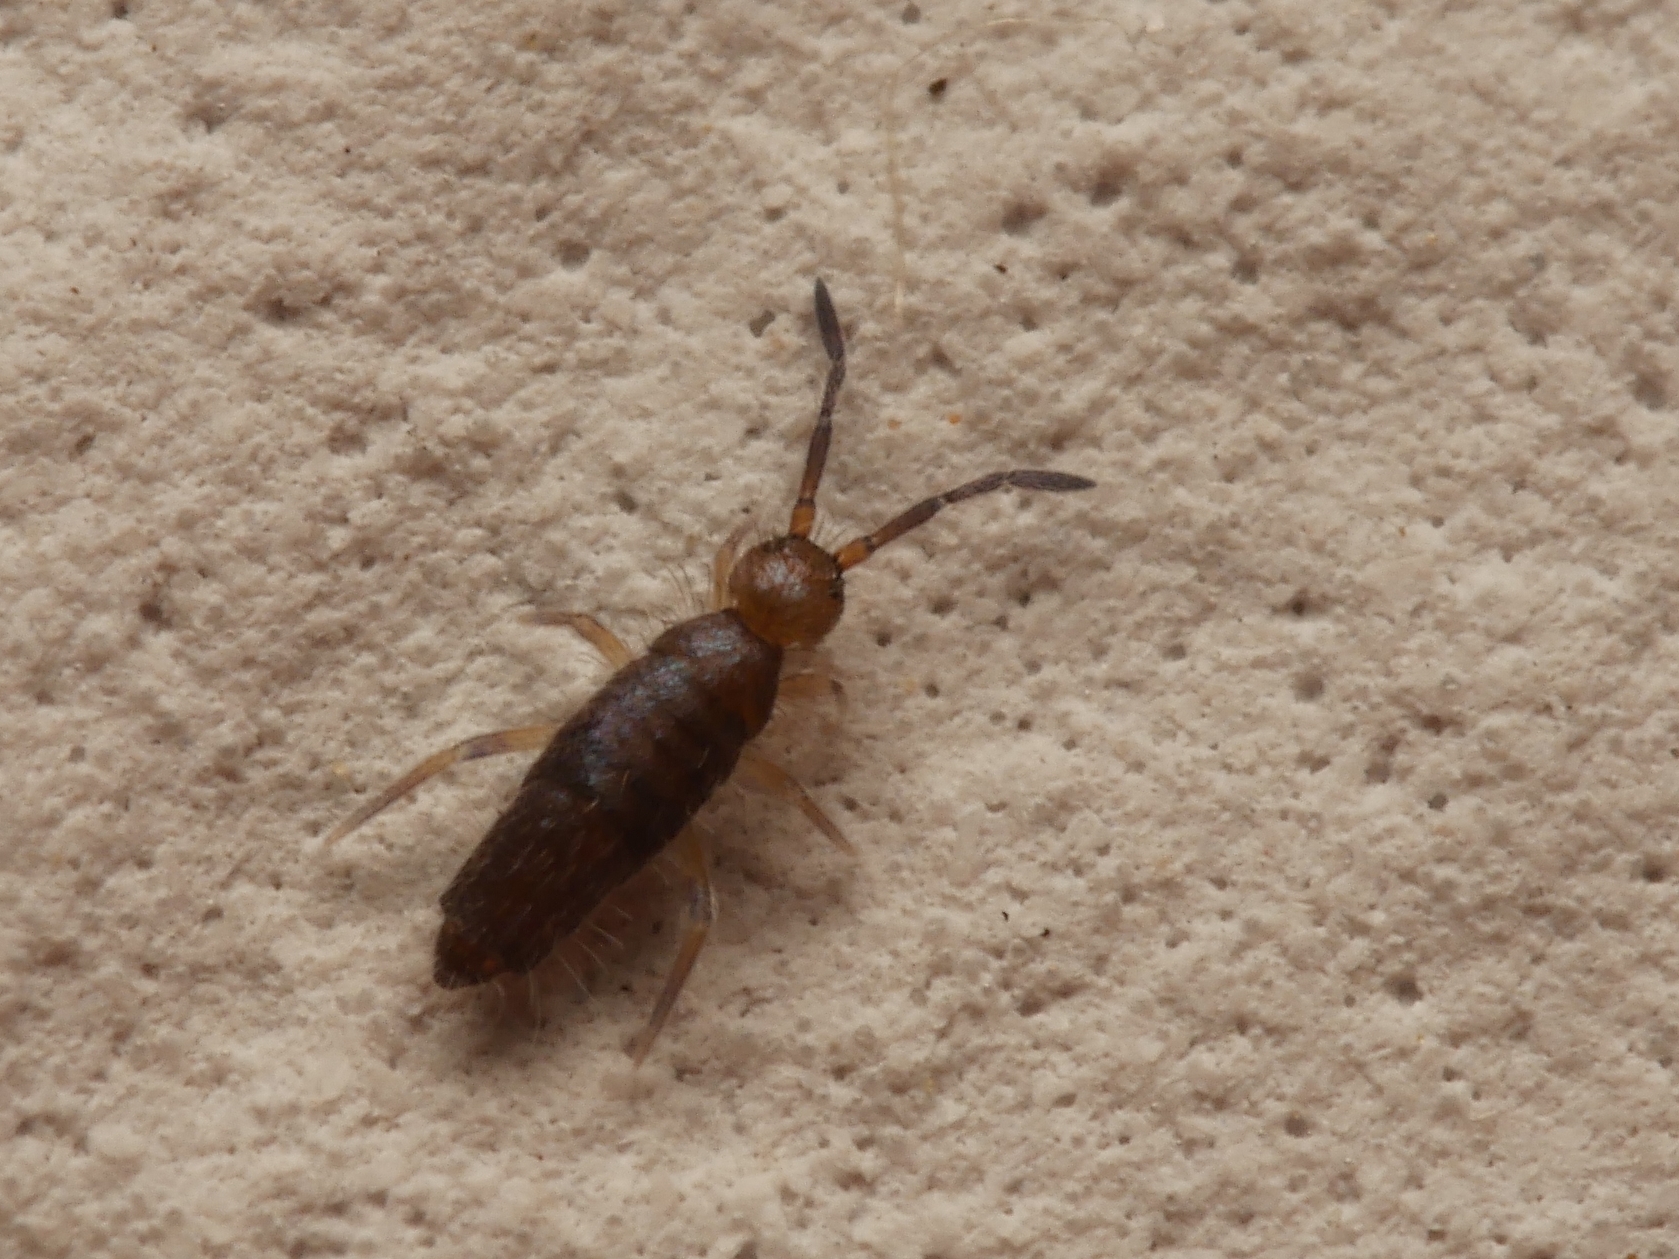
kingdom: Animalia
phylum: Arthropoda
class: Collembola
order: Entomobryomorpha
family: Entomobryidae
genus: Willowsia
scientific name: Willowsia buski
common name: Damp grain springtail
